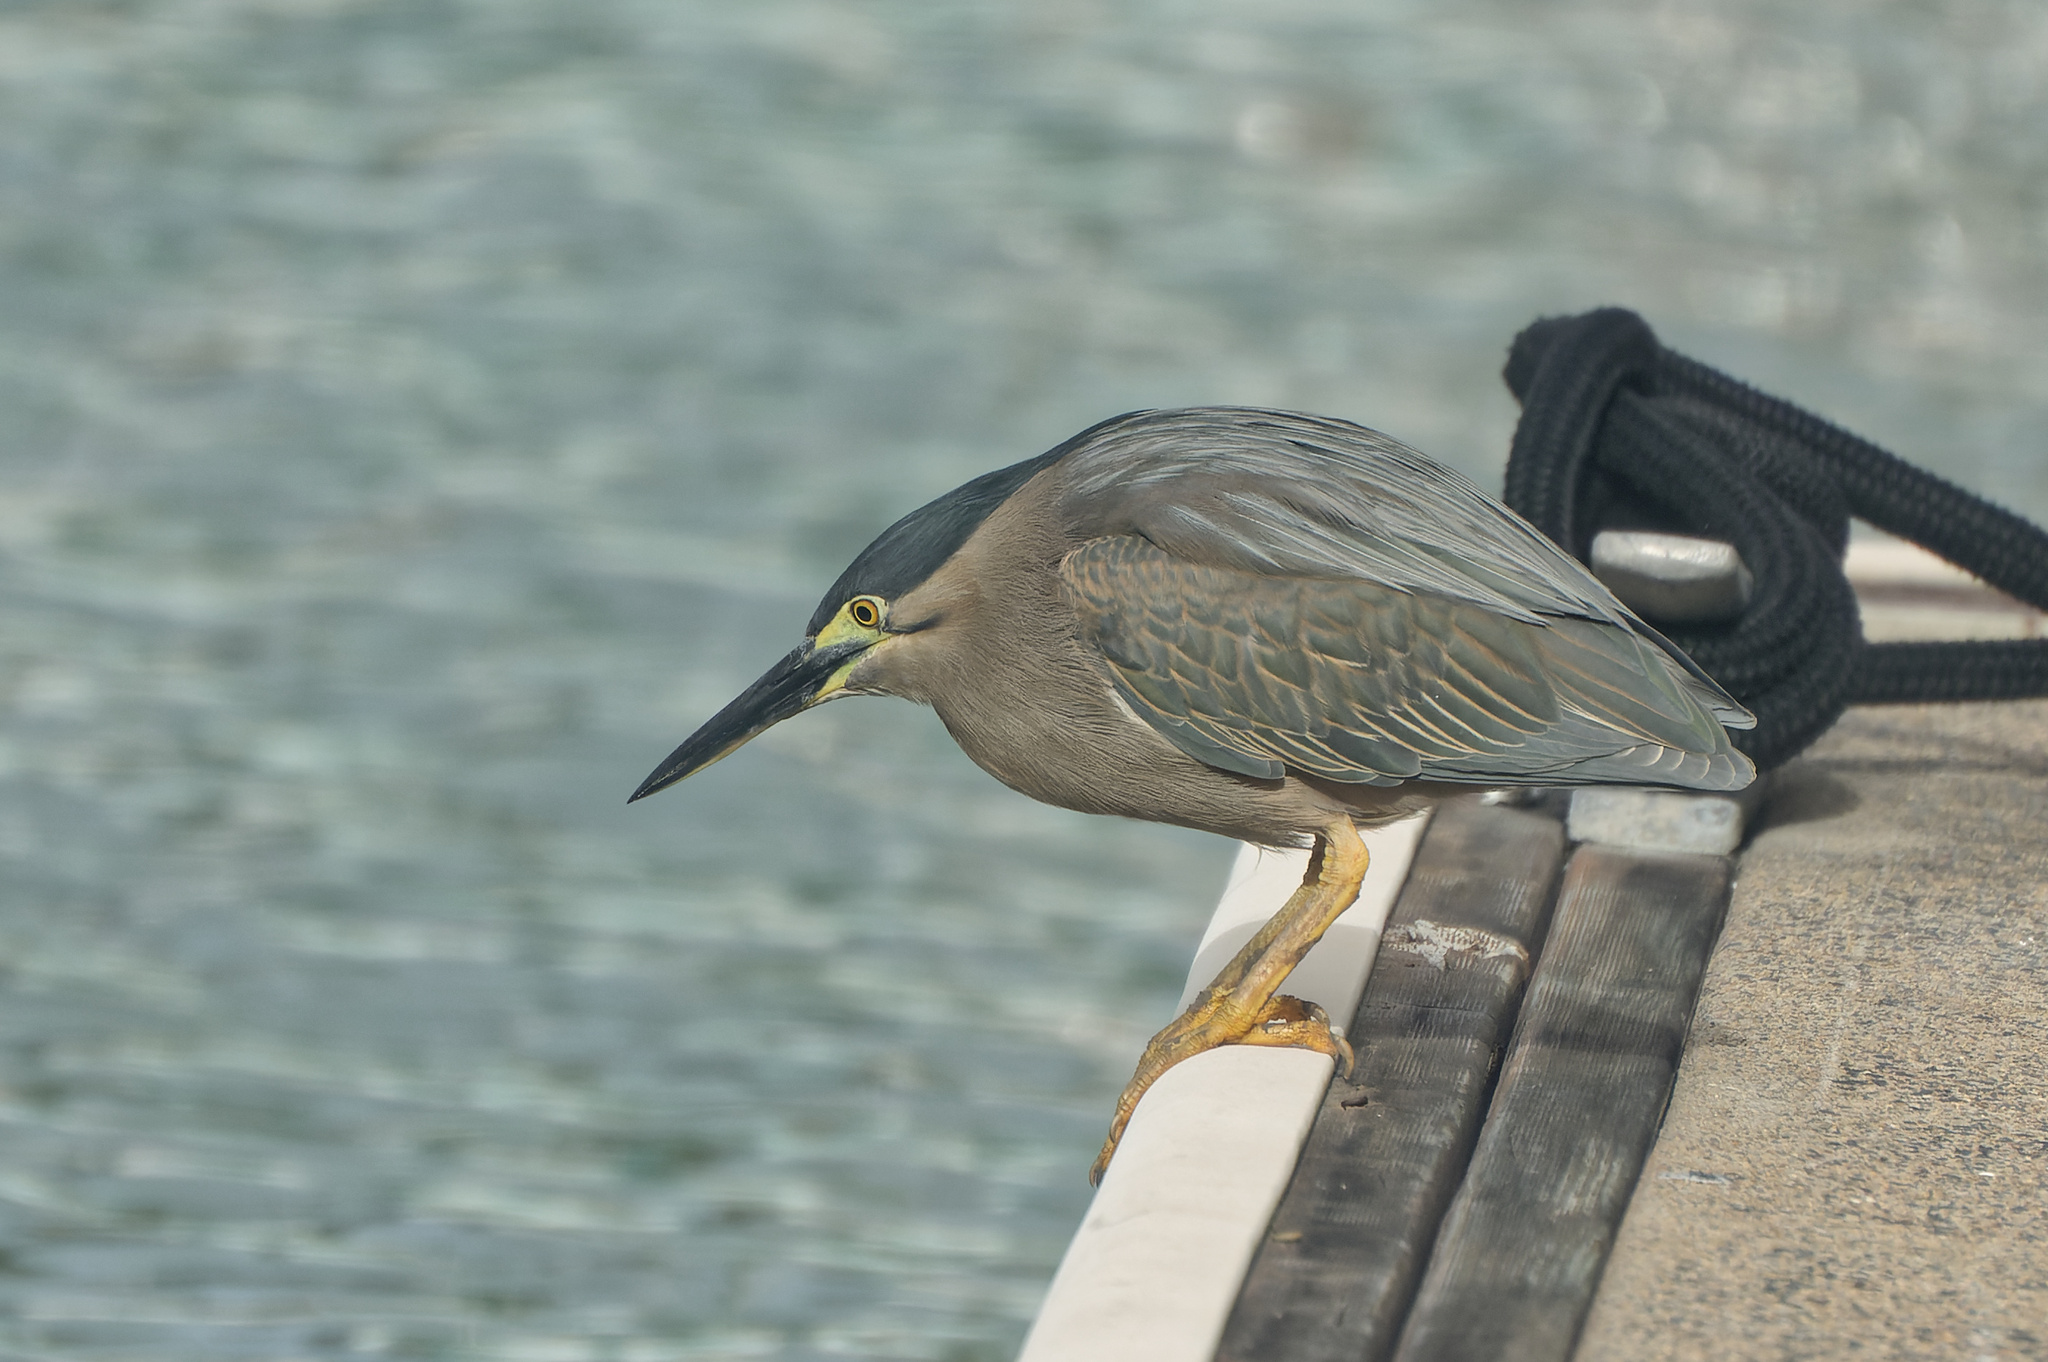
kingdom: Animalia
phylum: Chordata
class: Aves
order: Pelecaniformes
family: Ardeidae
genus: Butorides
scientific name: Butorides striata
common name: Striated heron
